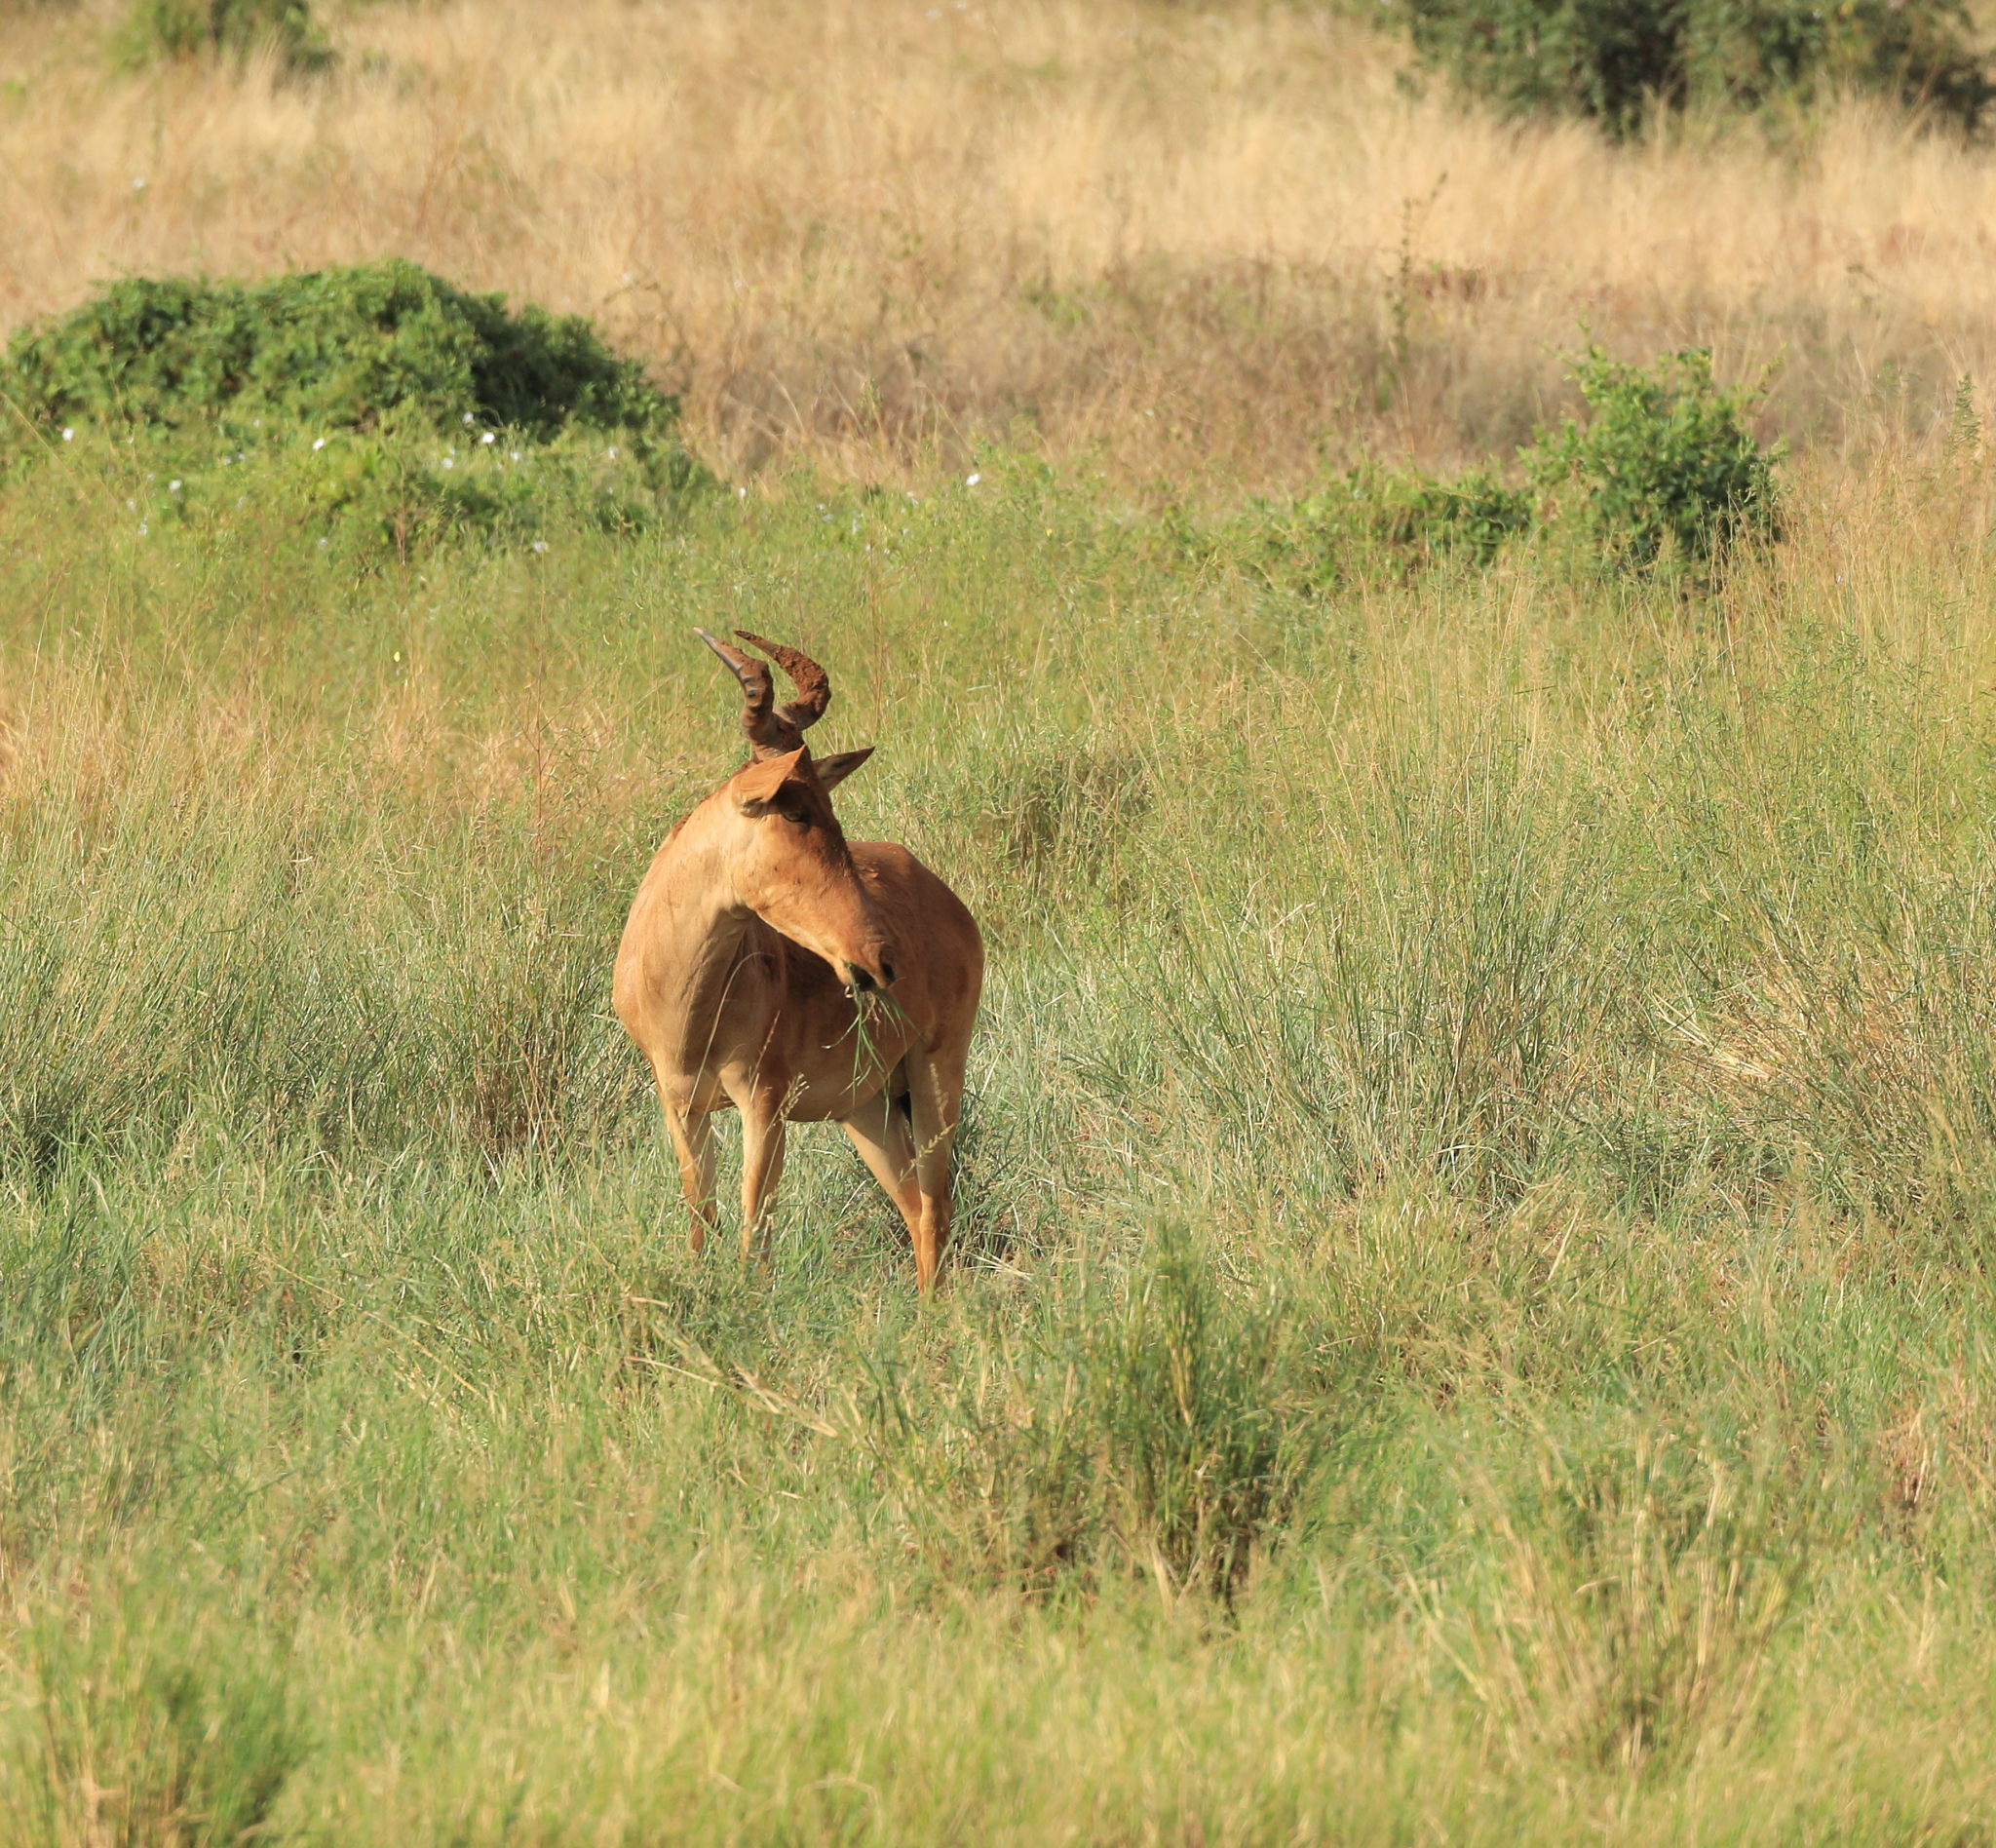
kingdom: Animalia
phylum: Chordata
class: Mammalia
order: Artiodactyla
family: Bovidae
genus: Alcelaphus
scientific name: Alcelaphus buselaphus
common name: Hartebeest
